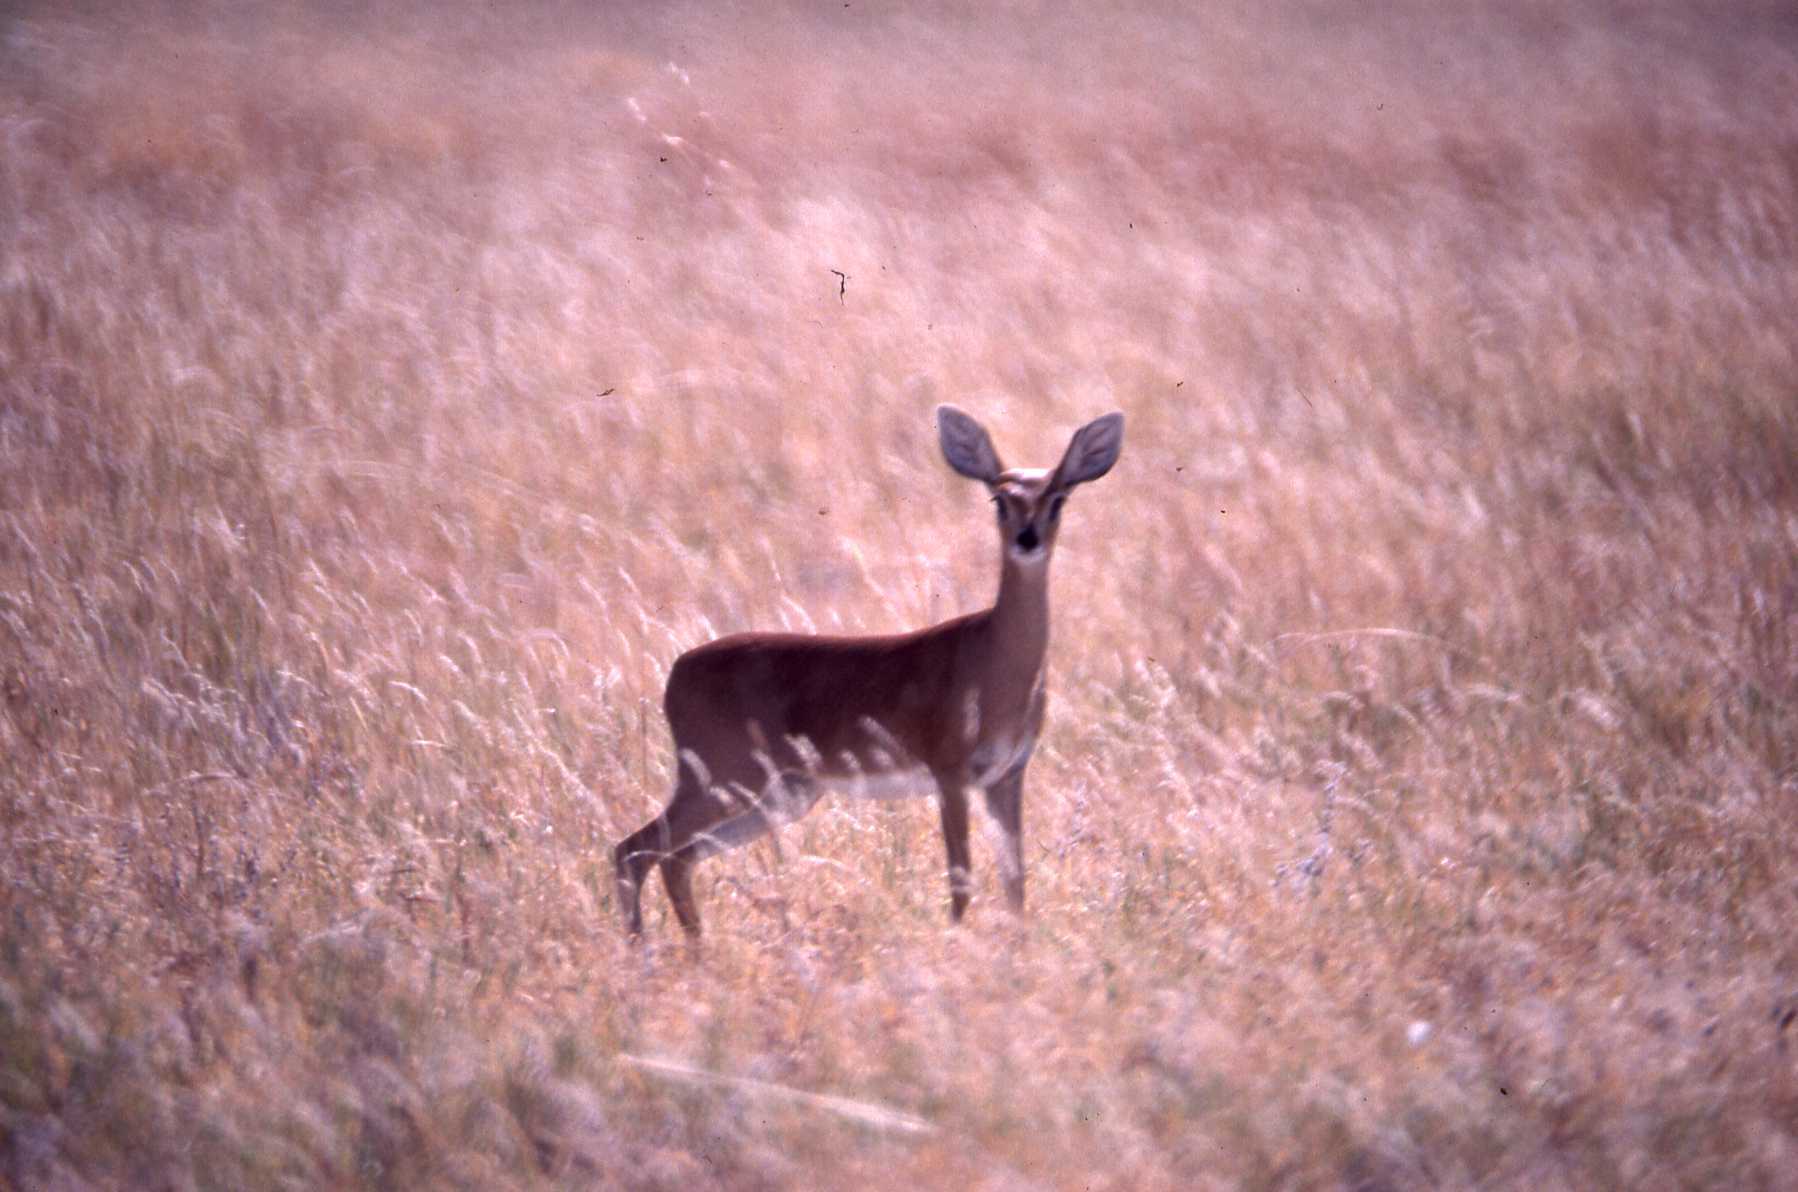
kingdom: Animalia
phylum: Chordata
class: Mammalia
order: Artiodactyla
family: Bovidae
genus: Raphicerus
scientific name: Raphicerus campestris
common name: Steenbok
